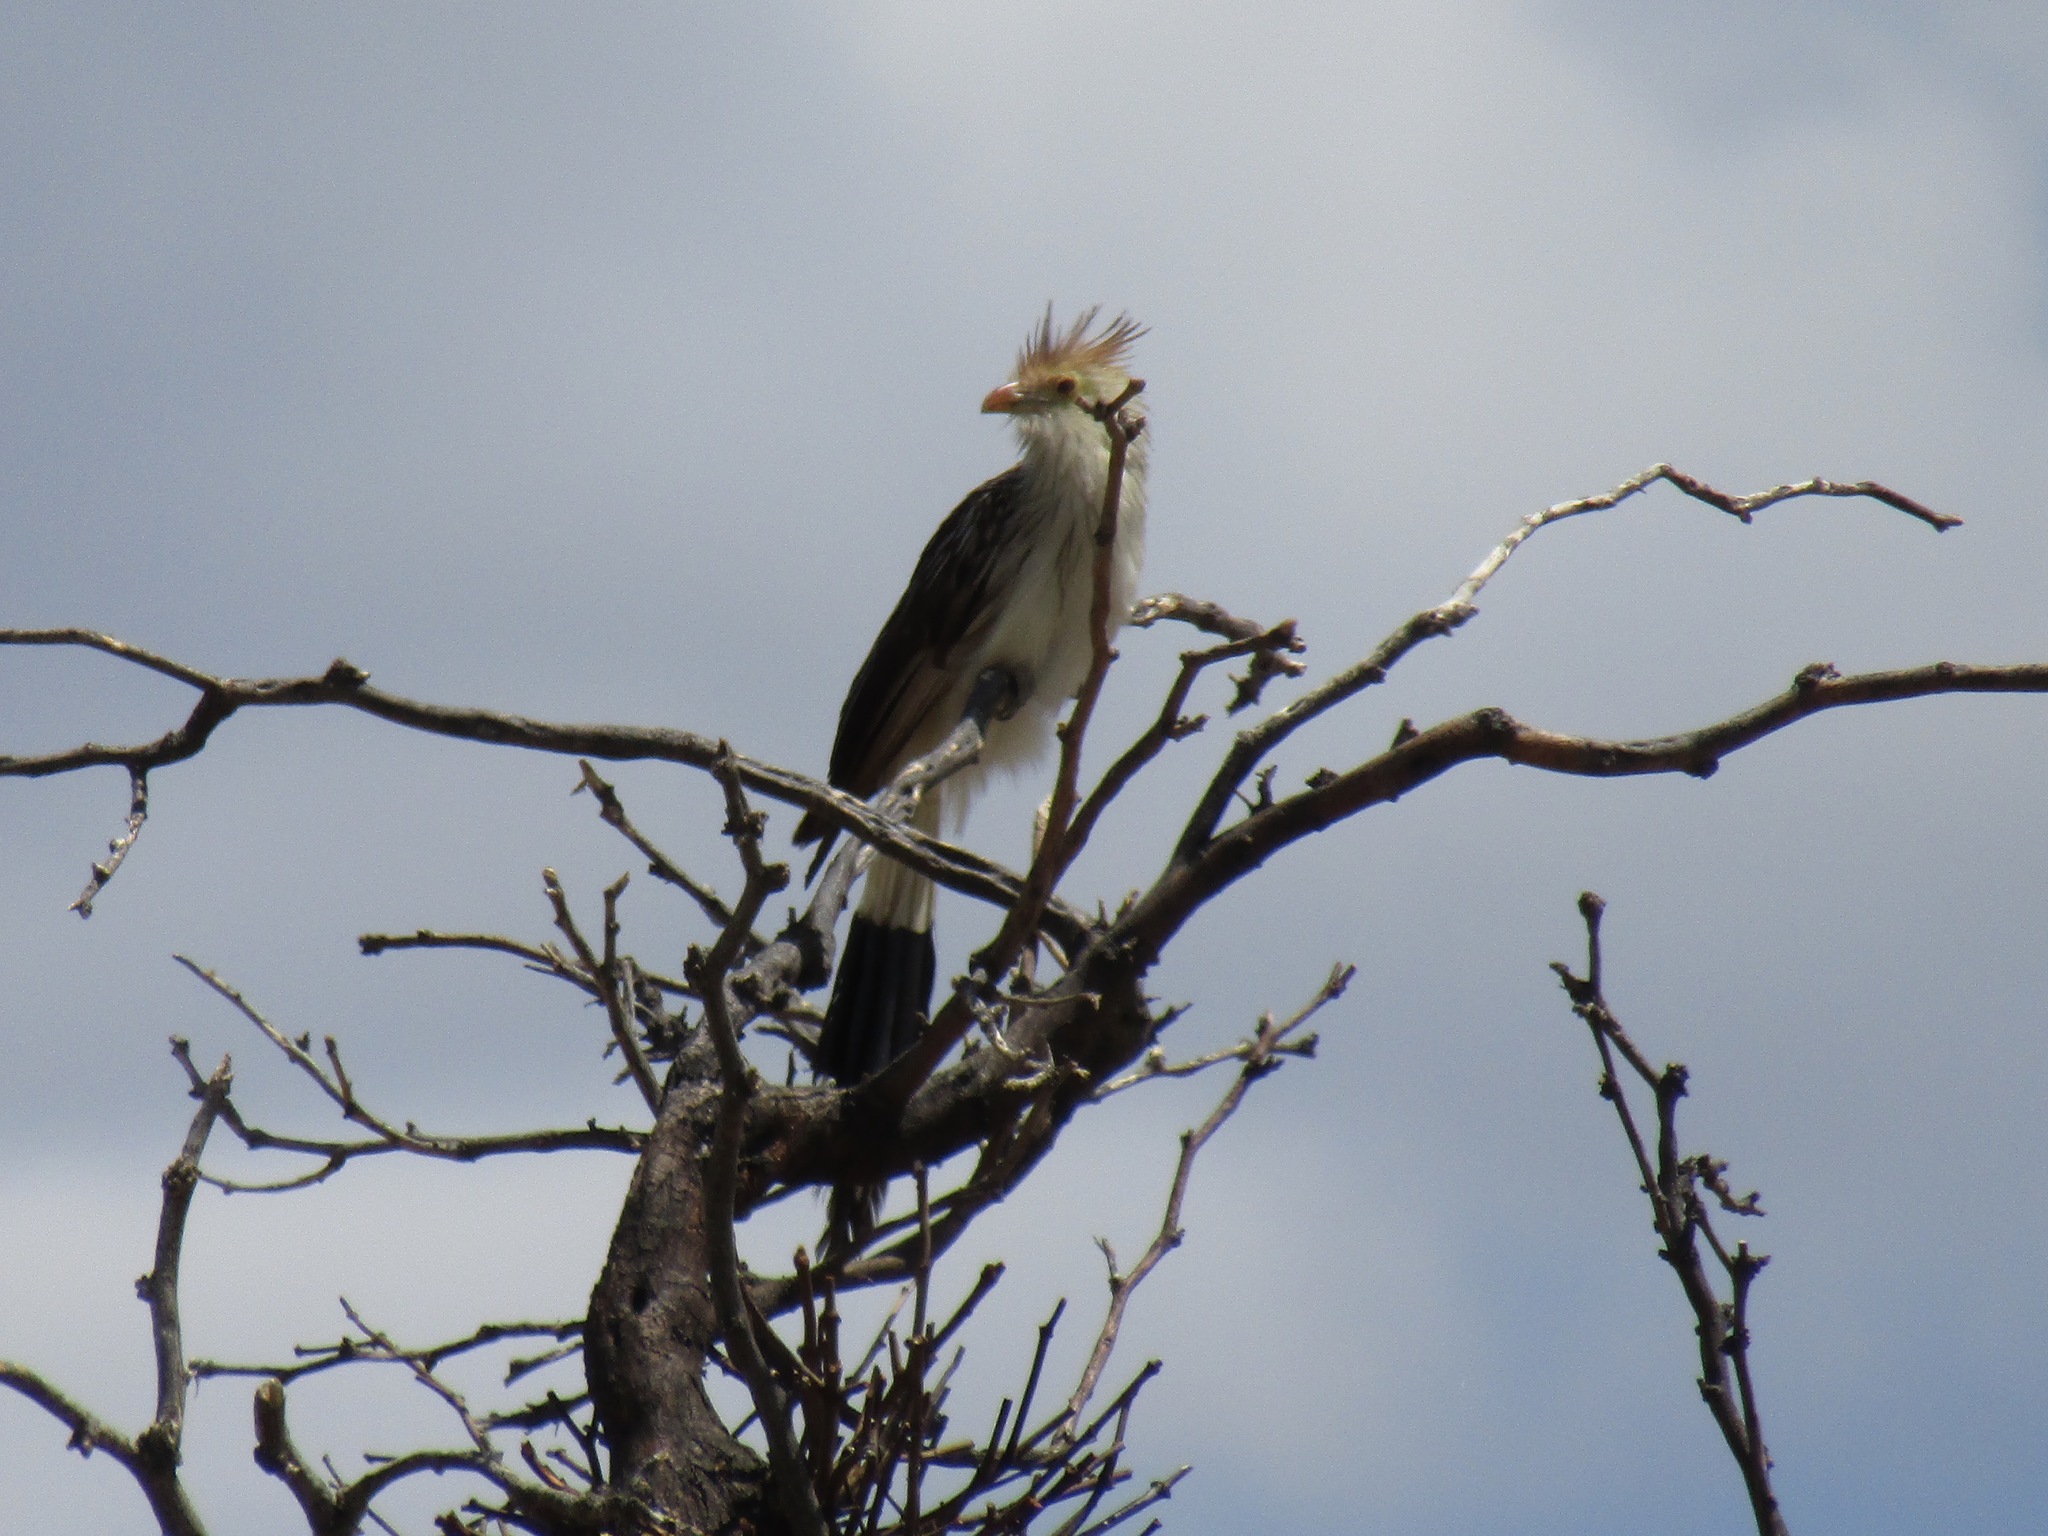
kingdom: Animalia
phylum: Chordata
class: Aves
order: Cuculiformes
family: Cuculidae
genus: Guira
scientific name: Guira guira
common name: Guira cuckoo
